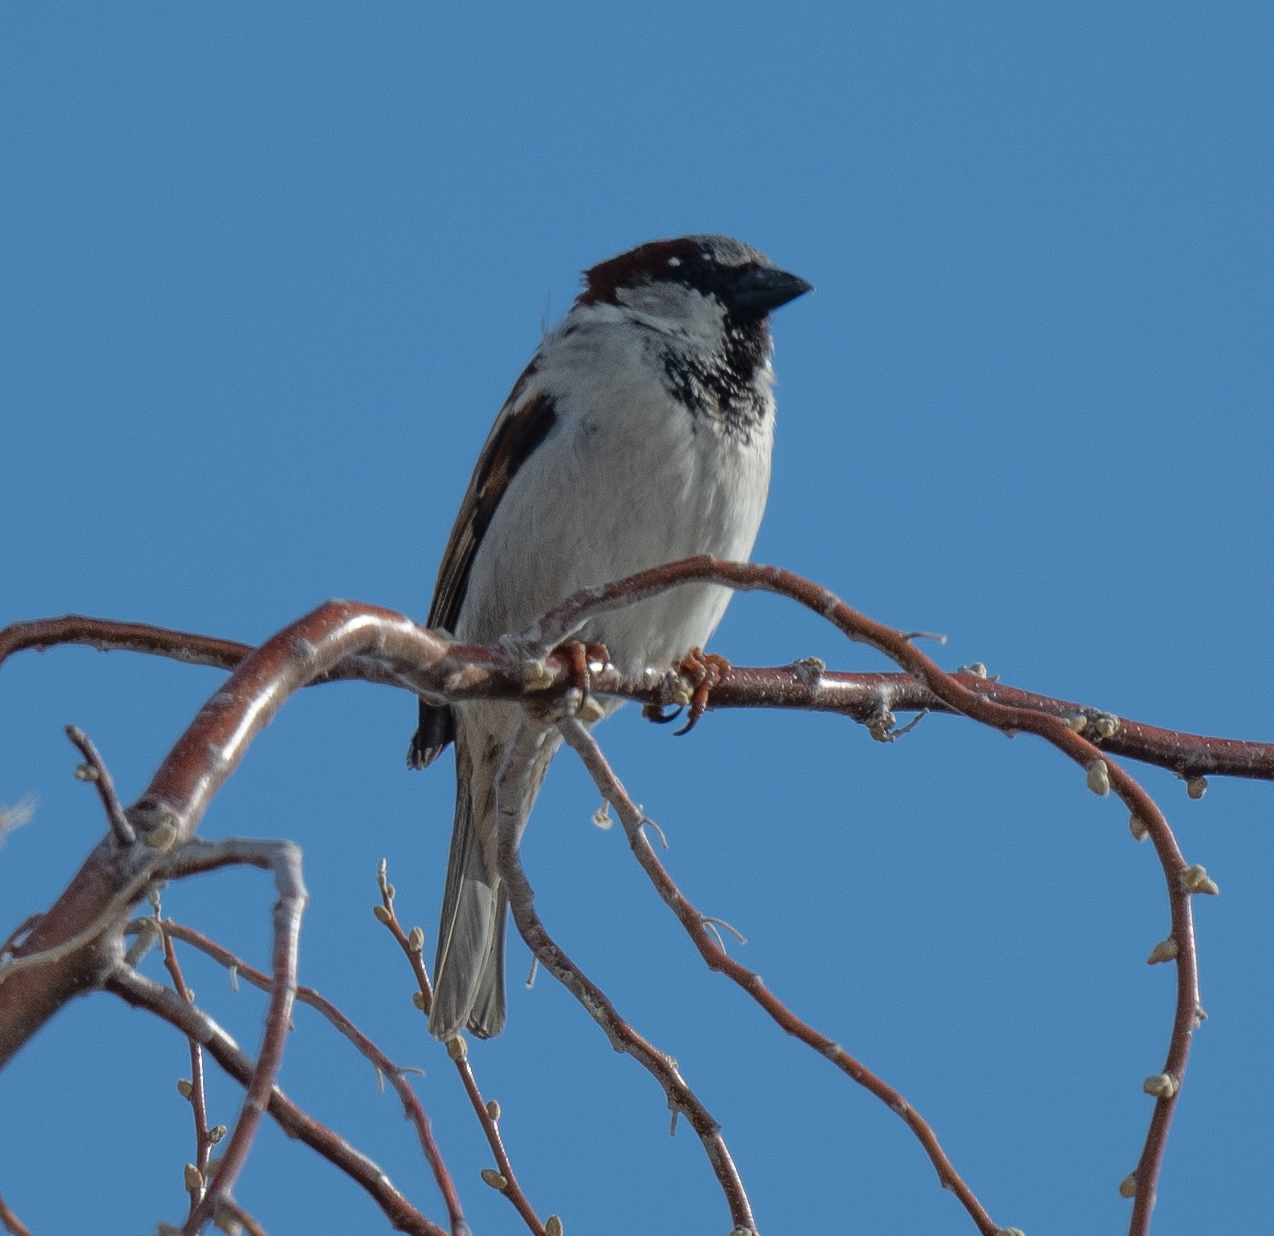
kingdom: Animalia
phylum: Chordata
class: Aves
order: Passeriformes
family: Passeridae
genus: Passer
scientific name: Passer domesticus
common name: House sparrow
